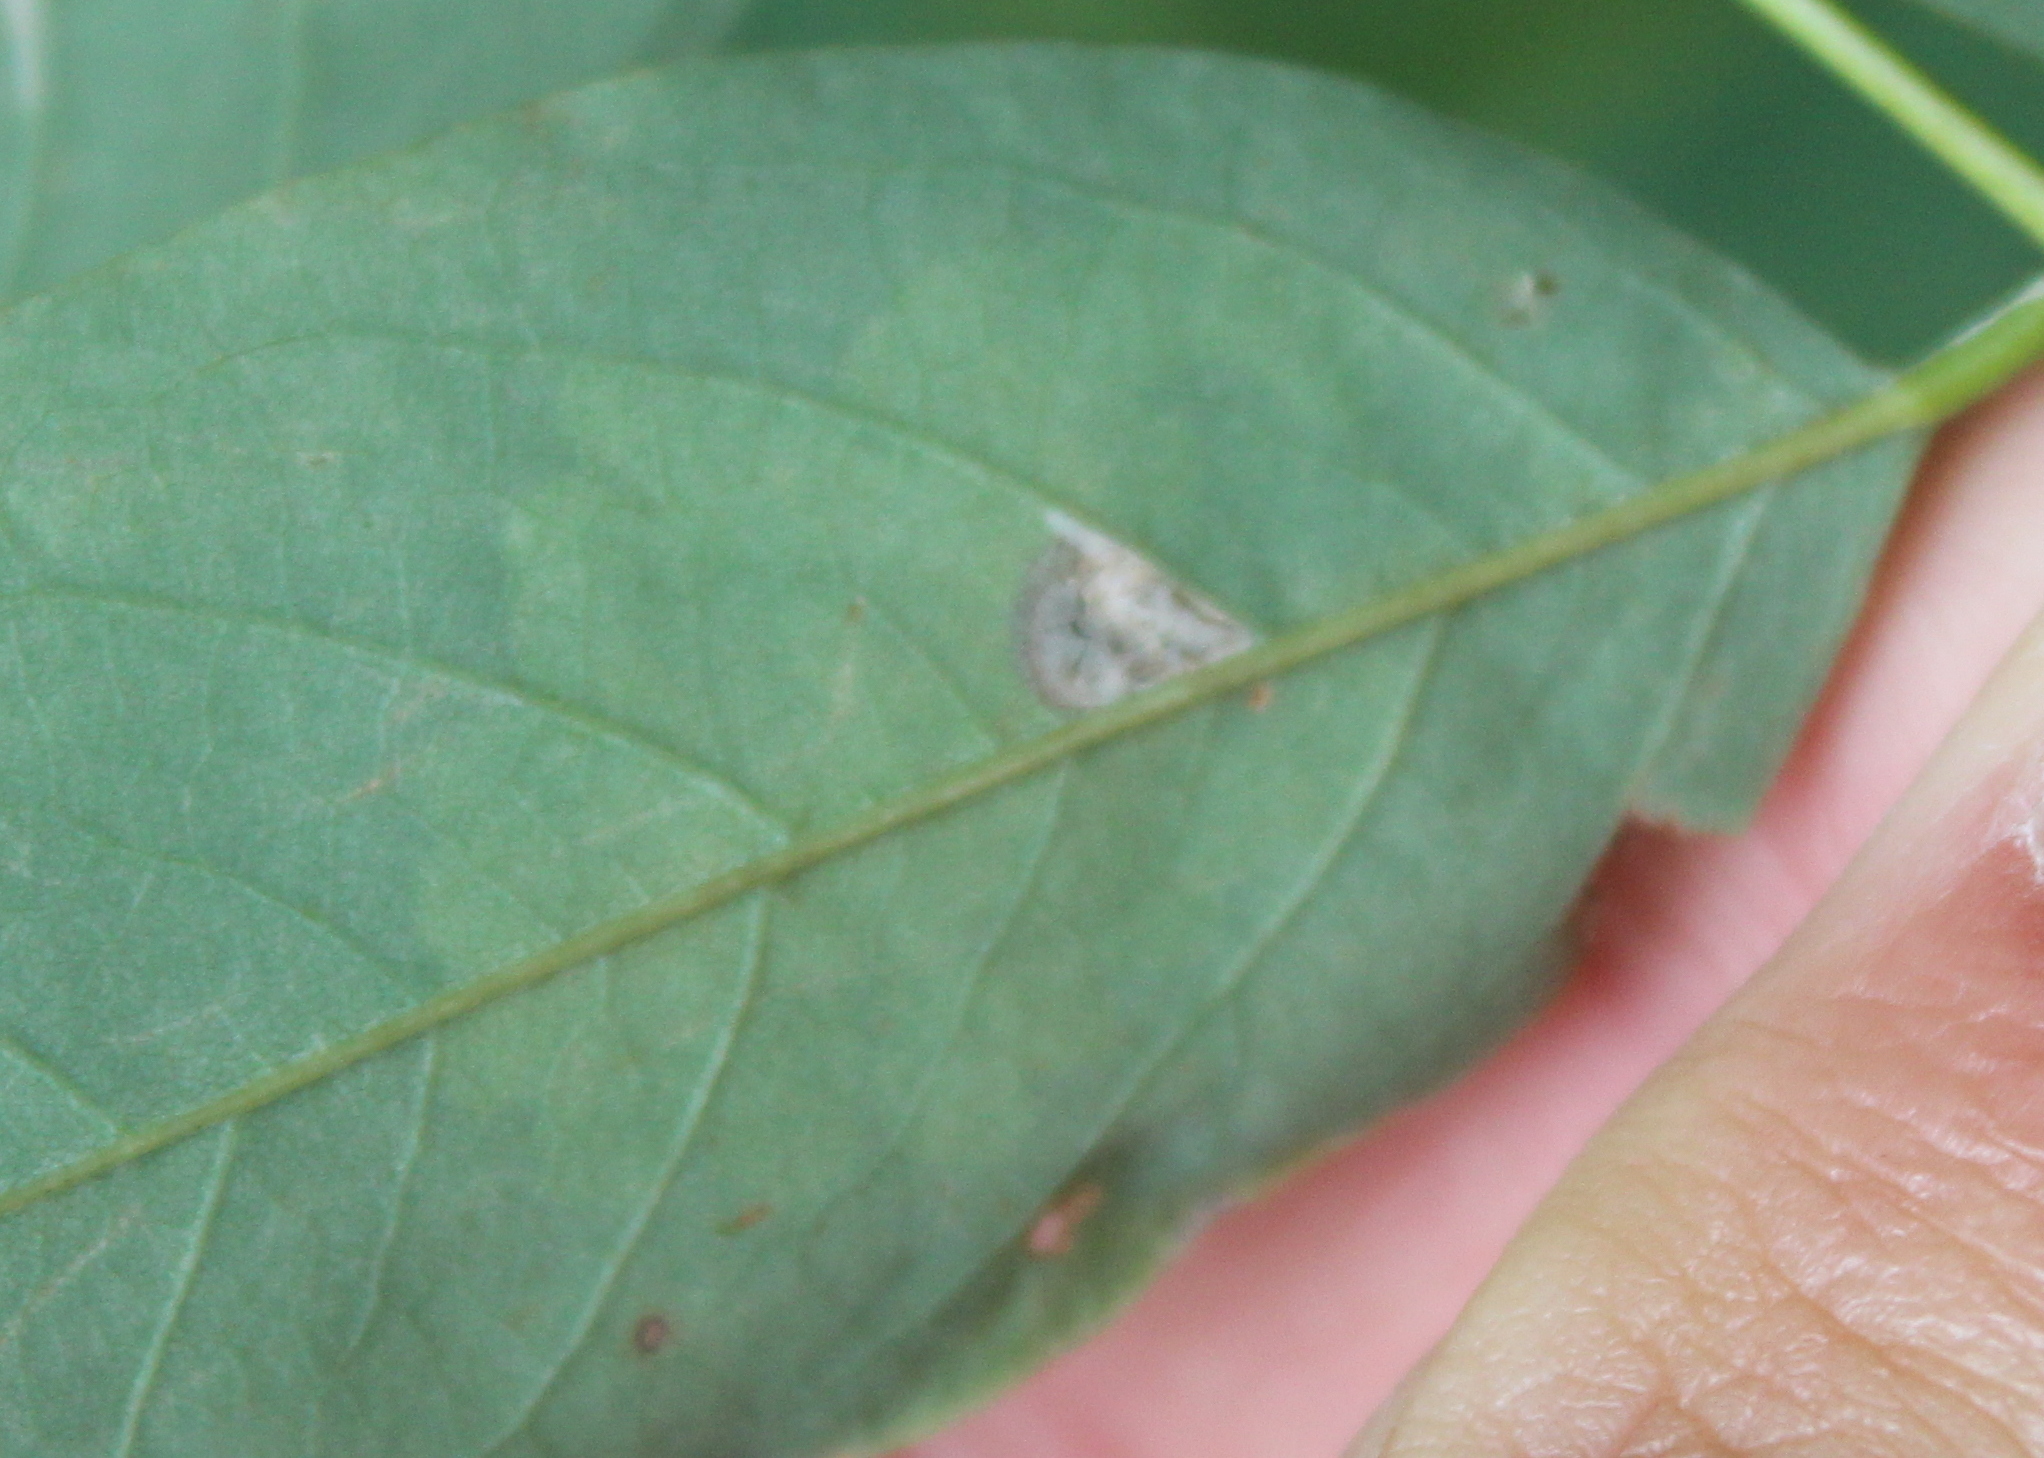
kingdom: Animalia
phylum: Arthropoda
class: Insecta
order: Lepidoptera
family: Gracillariidae
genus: Parectopa
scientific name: Parectopa robiniella
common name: Locust digitate leafminer
